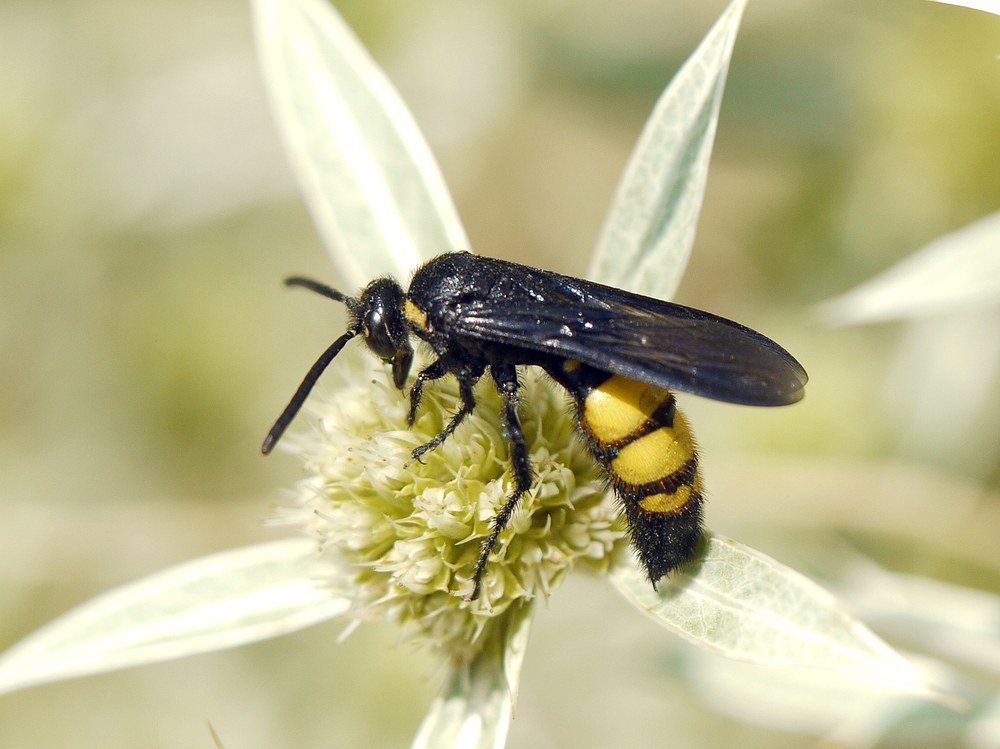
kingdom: Animalia
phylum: Arthropoda
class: Insecta
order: Hymenoptera
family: Vespidae
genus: Vespa
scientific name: Vespa galbula
